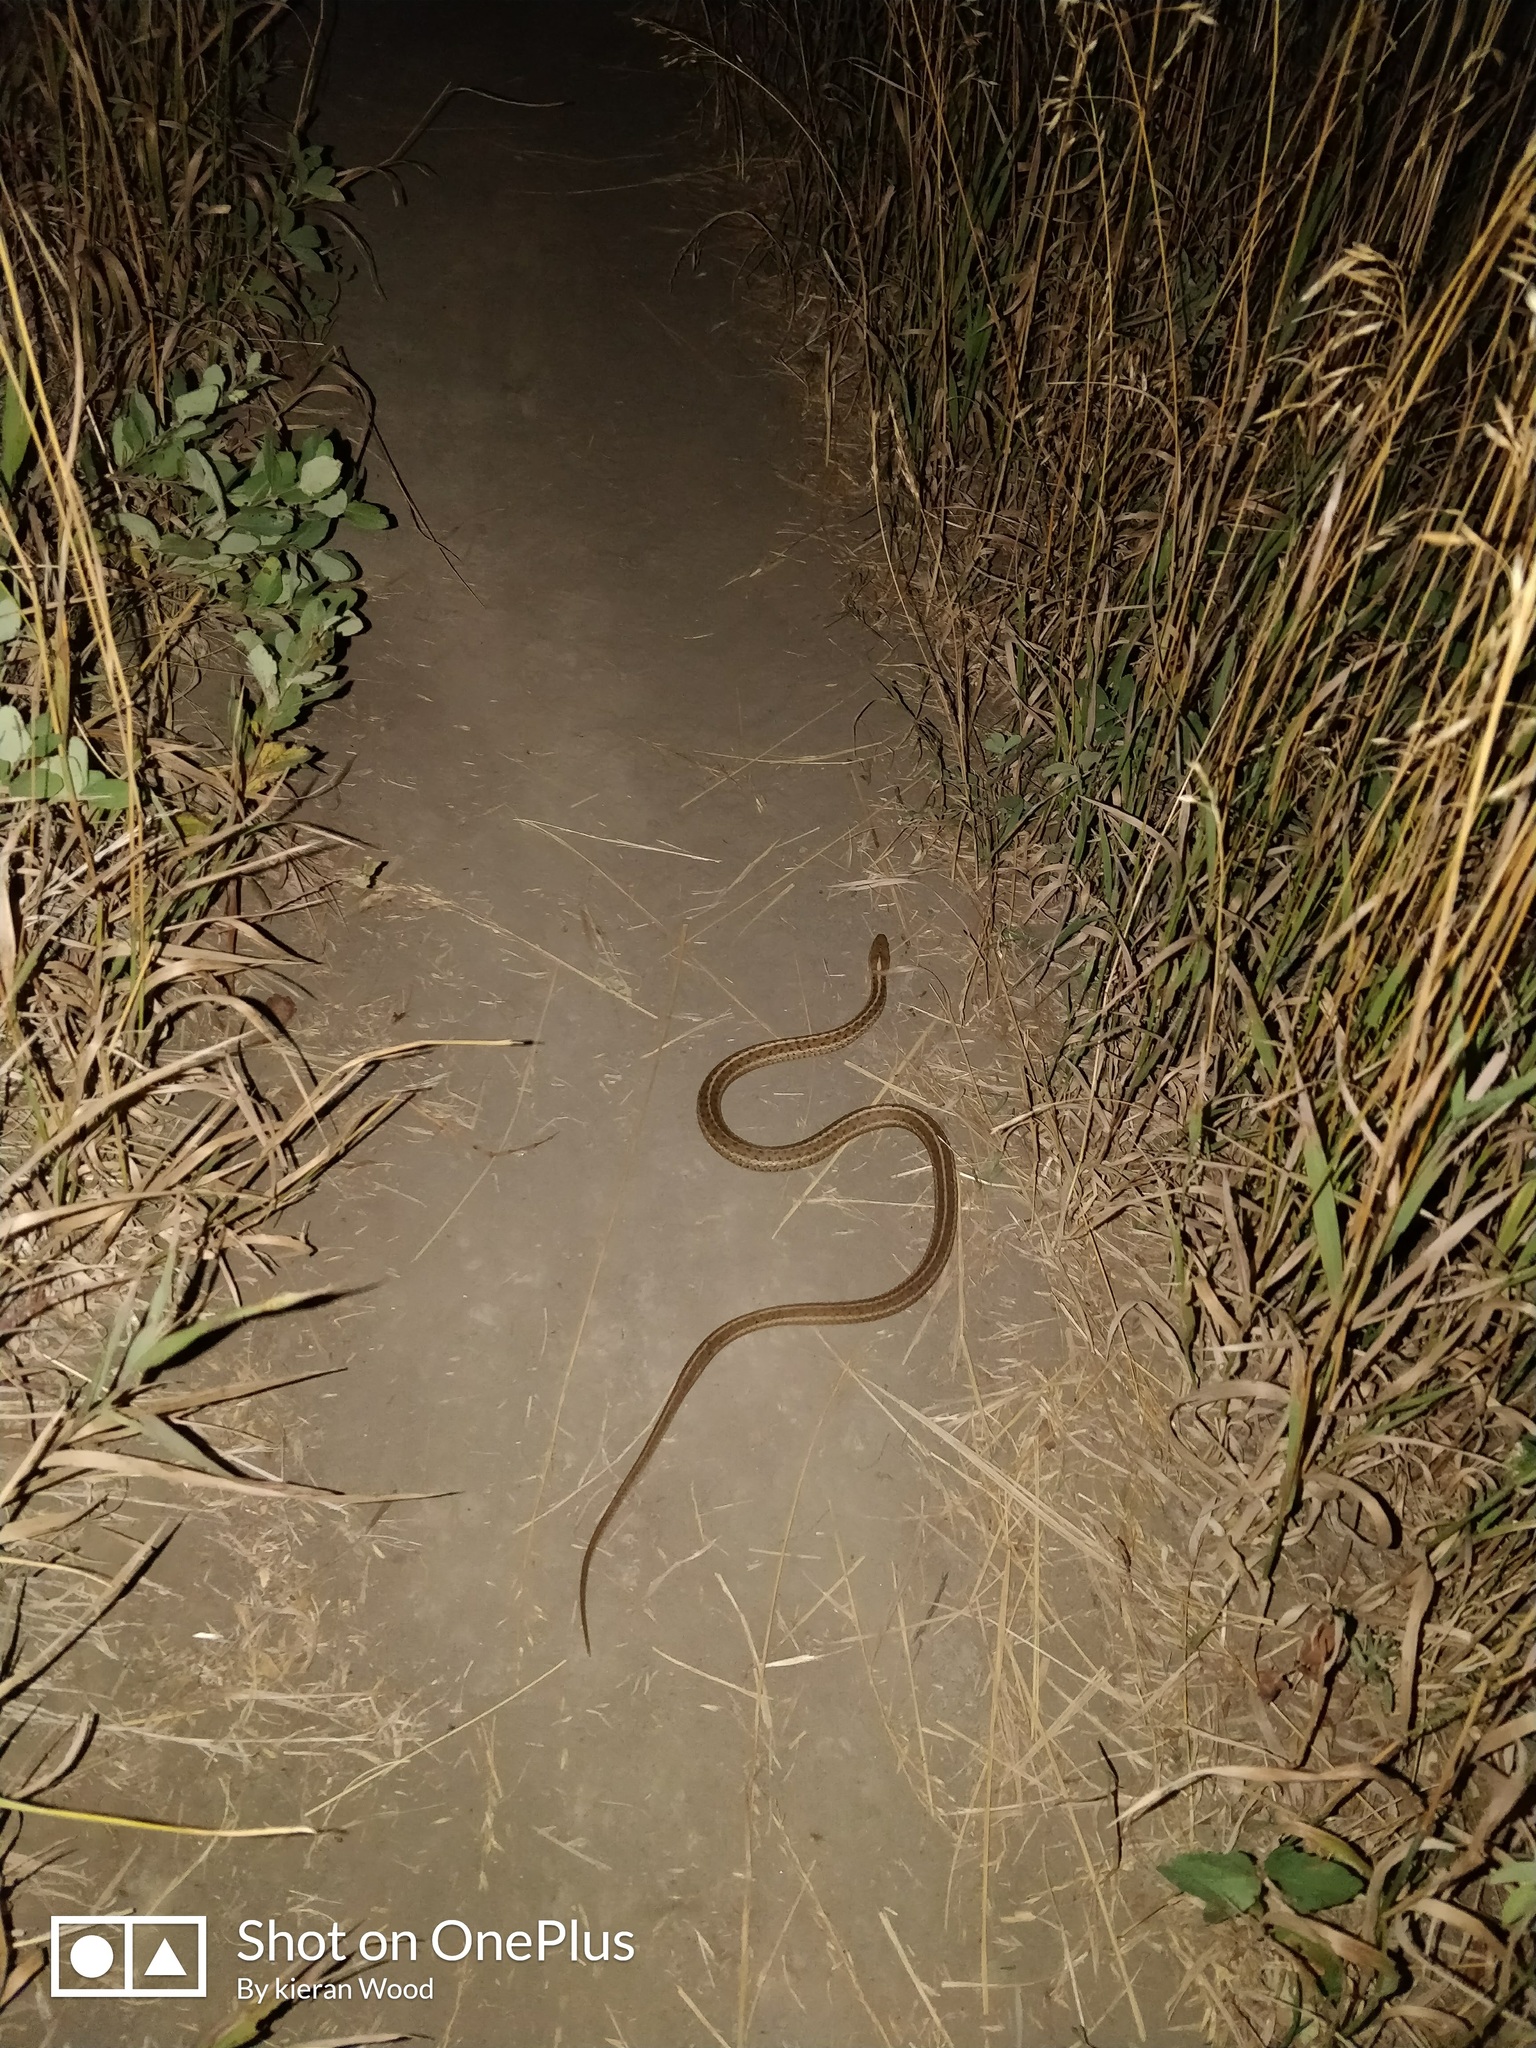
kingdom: Animalia
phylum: Chordata
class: Squamata
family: Colubridae
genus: Thamnophis
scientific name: Thamnophis elegans
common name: Western terrestrial garter snake
